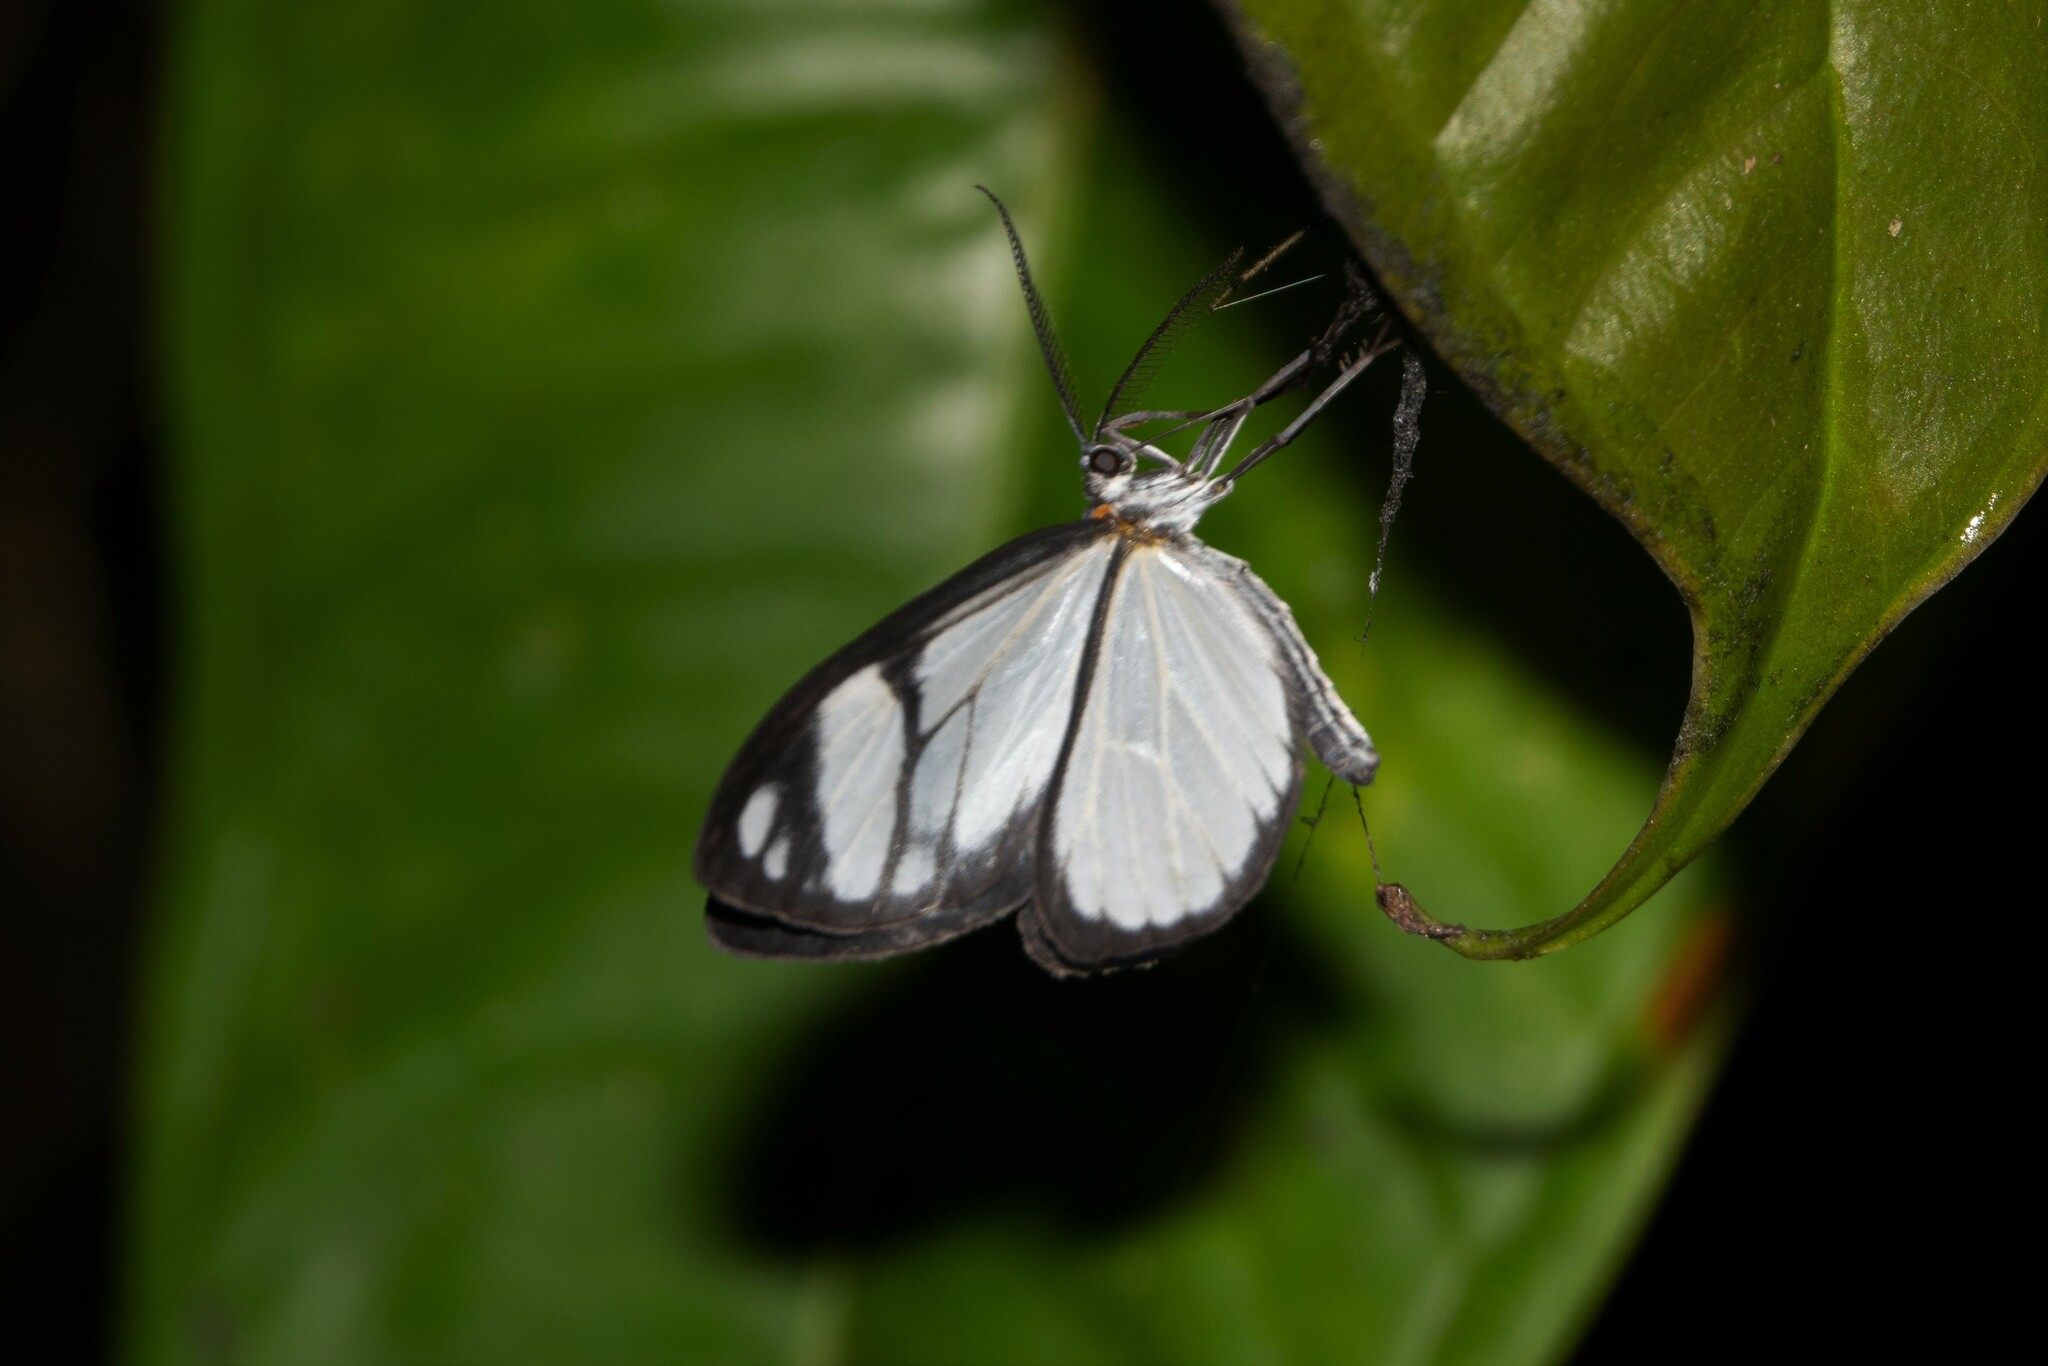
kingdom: Animalia
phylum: Arthropoda
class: Insecta
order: Lepidoptera
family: Notodontidae
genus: Isostyla
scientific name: Isostyla
